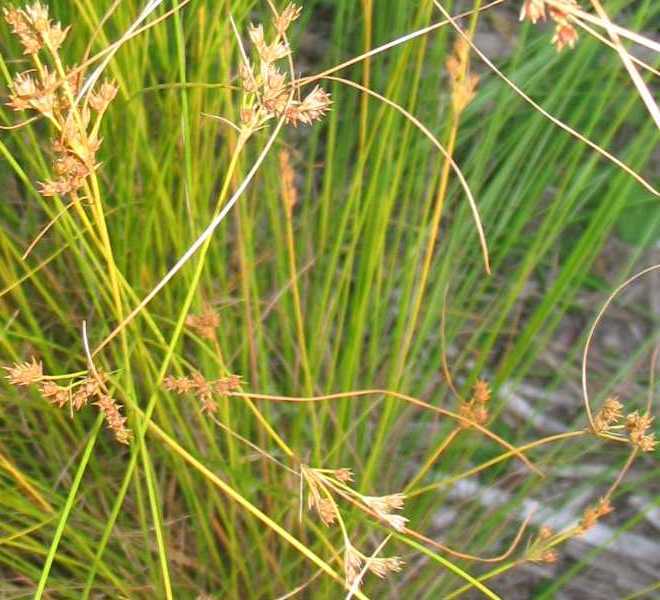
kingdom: Plantae
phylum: Tracheophyta
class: Liliopsida
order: Poales
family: Juncaceae
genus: Juncus
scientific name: Juncus dudleyi
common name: Dudley's rush
